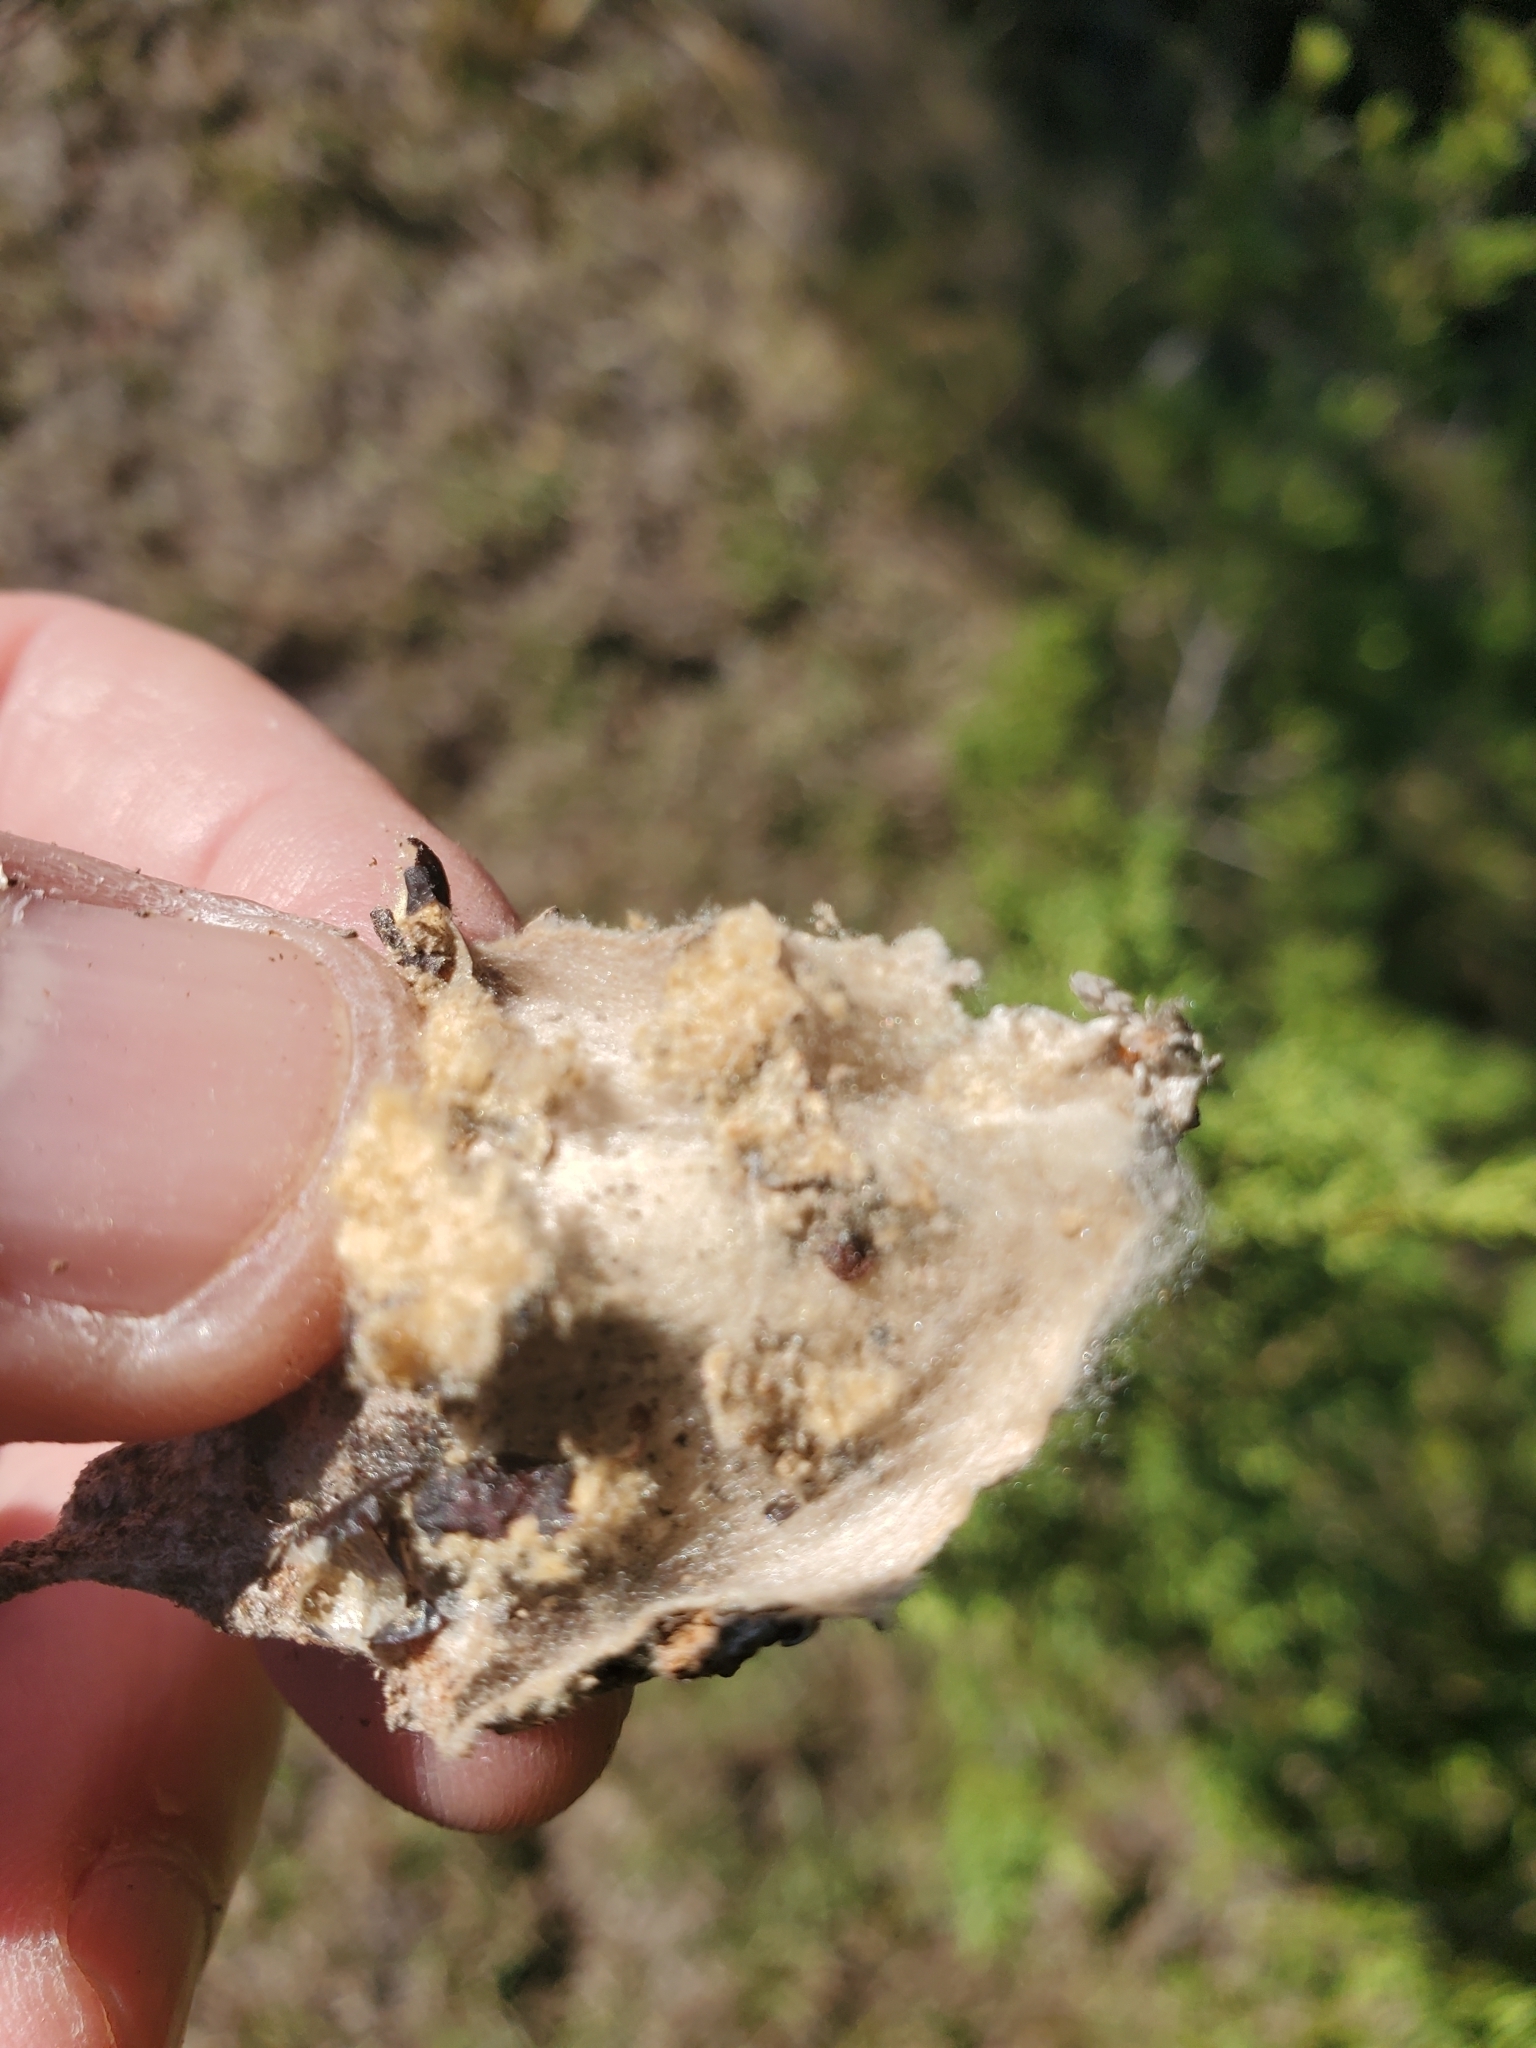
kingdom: Animalia
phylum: Arthropoda
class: Insecta
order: Lepidoptera
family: Psychidae
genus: Thyridopteryx
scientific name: Thyridopteryx ephemeraeformis
